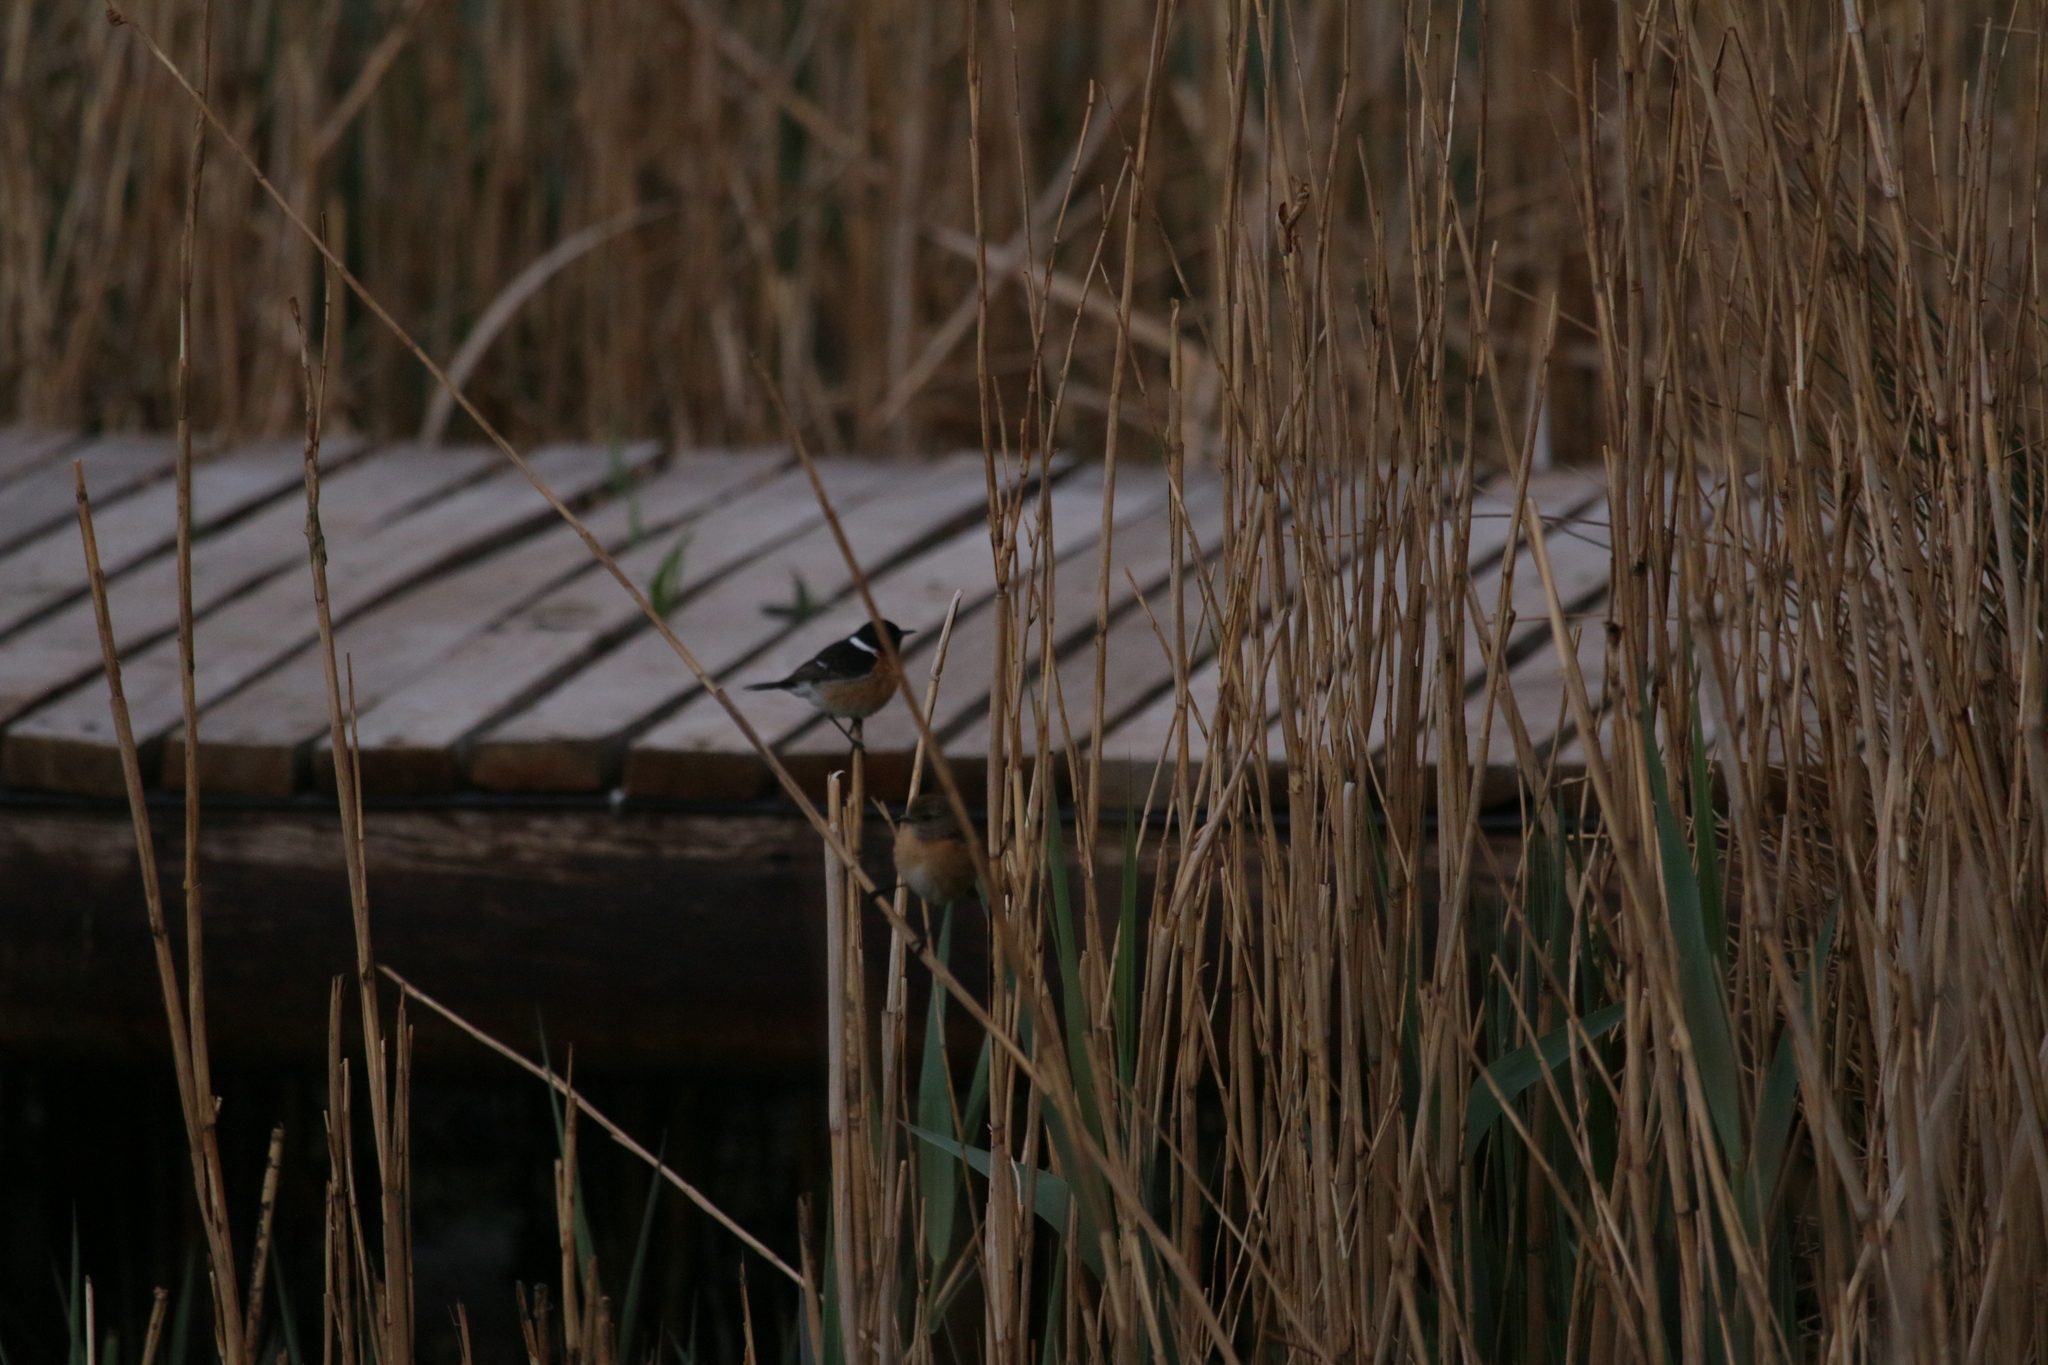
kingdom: Animalia
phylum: Chordata
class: Aves
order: Passeriformes
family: Muscicapidae
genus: Saxicola
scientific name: Saxicola torquatus
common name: African stonechat
